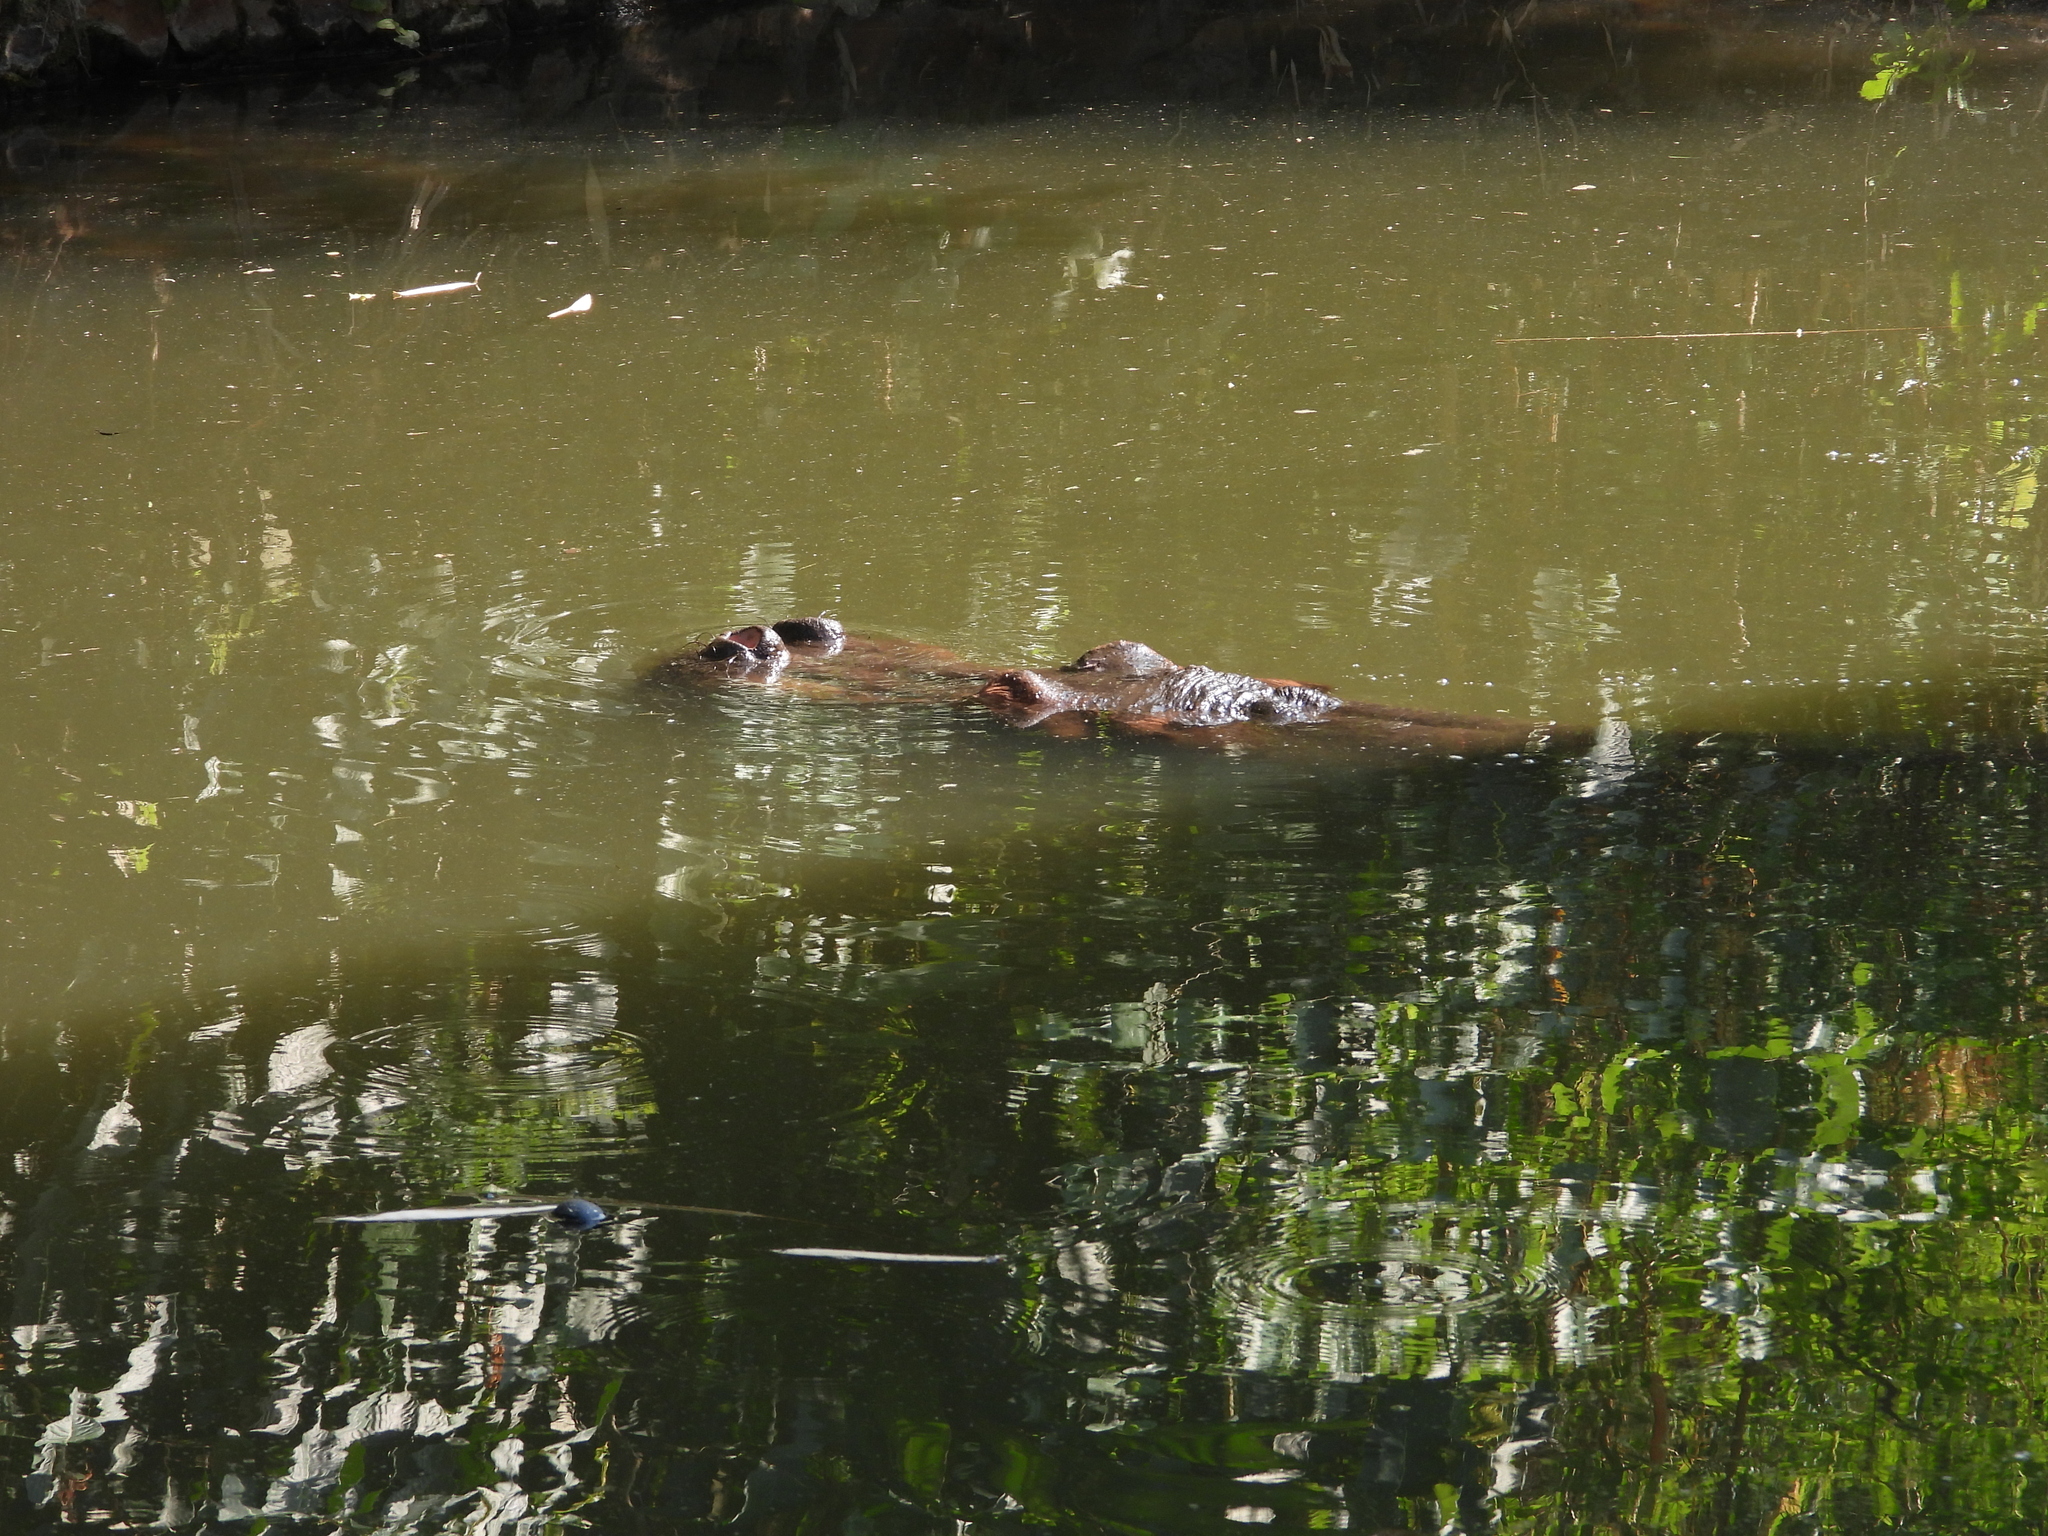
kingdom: Animalia
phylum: Chordata
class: Mammalia
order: Artiodactyla
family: Hippopotamidae
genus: Hippopotamus
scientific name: Hippopotamus amphibius
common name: Common hippopotamus
